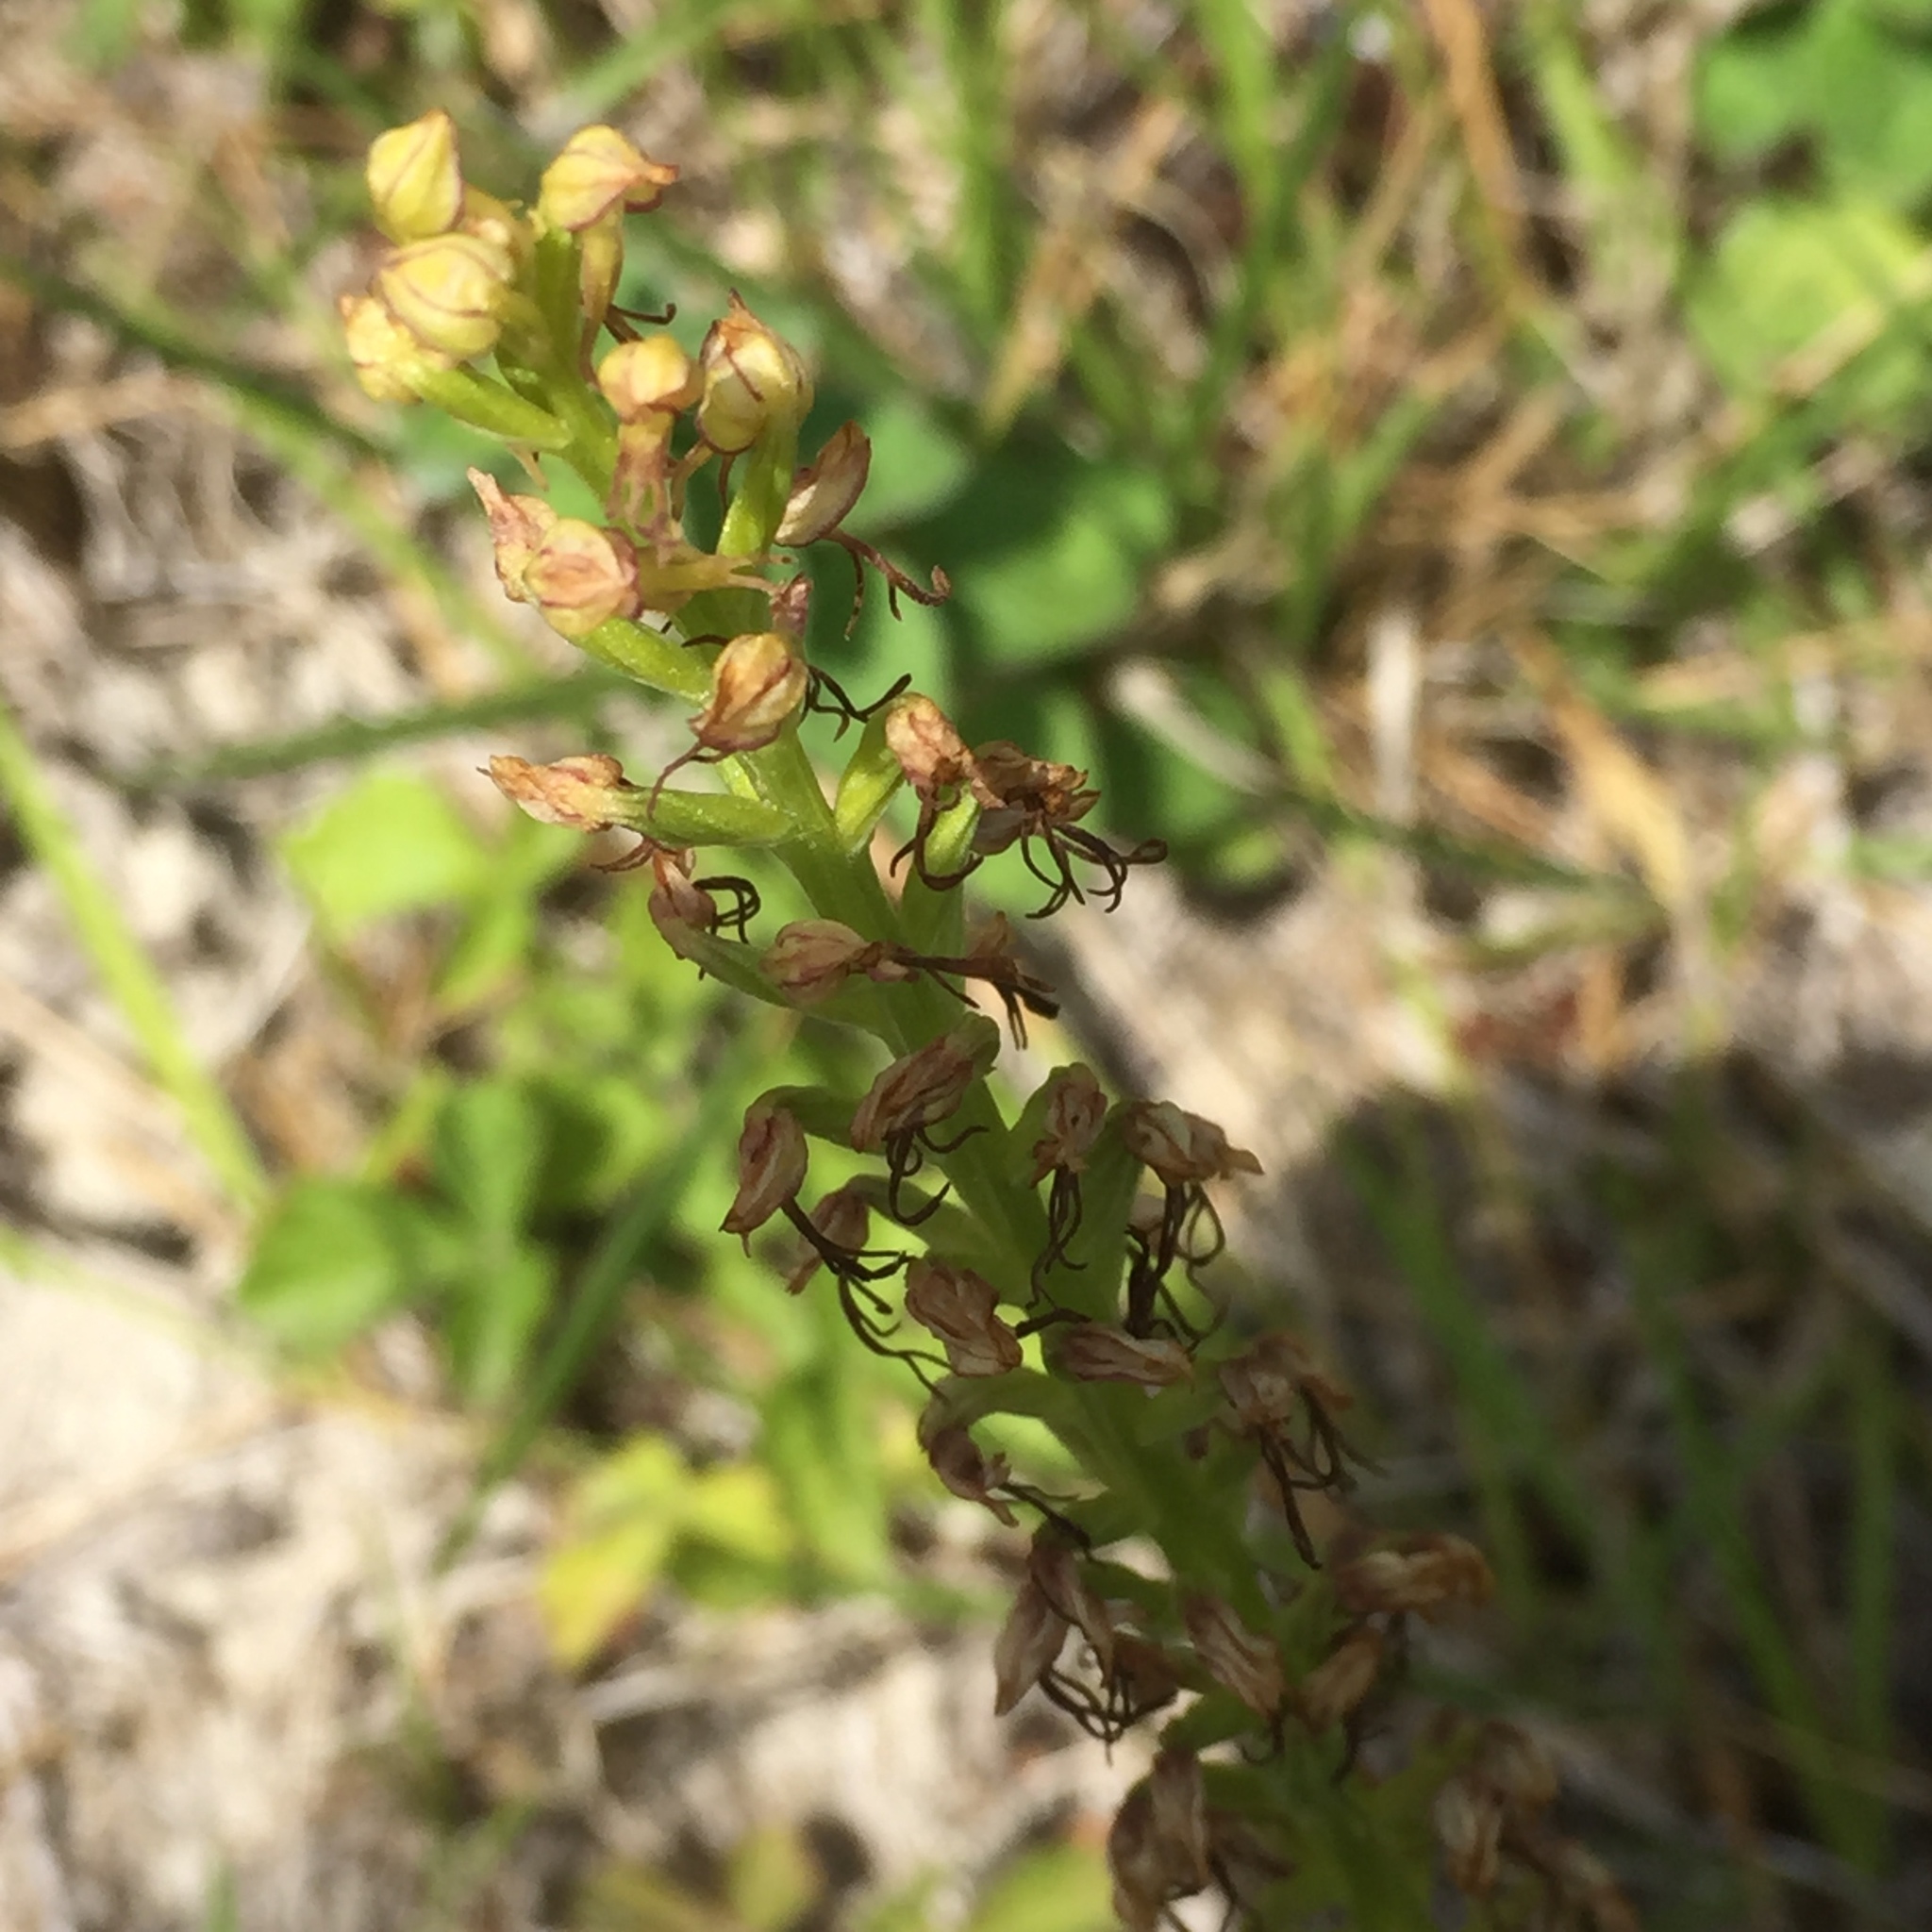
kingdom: Plantae
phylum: Tracheophyta
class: Liliopsida
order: Asparagales
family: Orchidaceae
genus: Orchis
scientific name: Orchis anthropophora
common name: Man orchid
